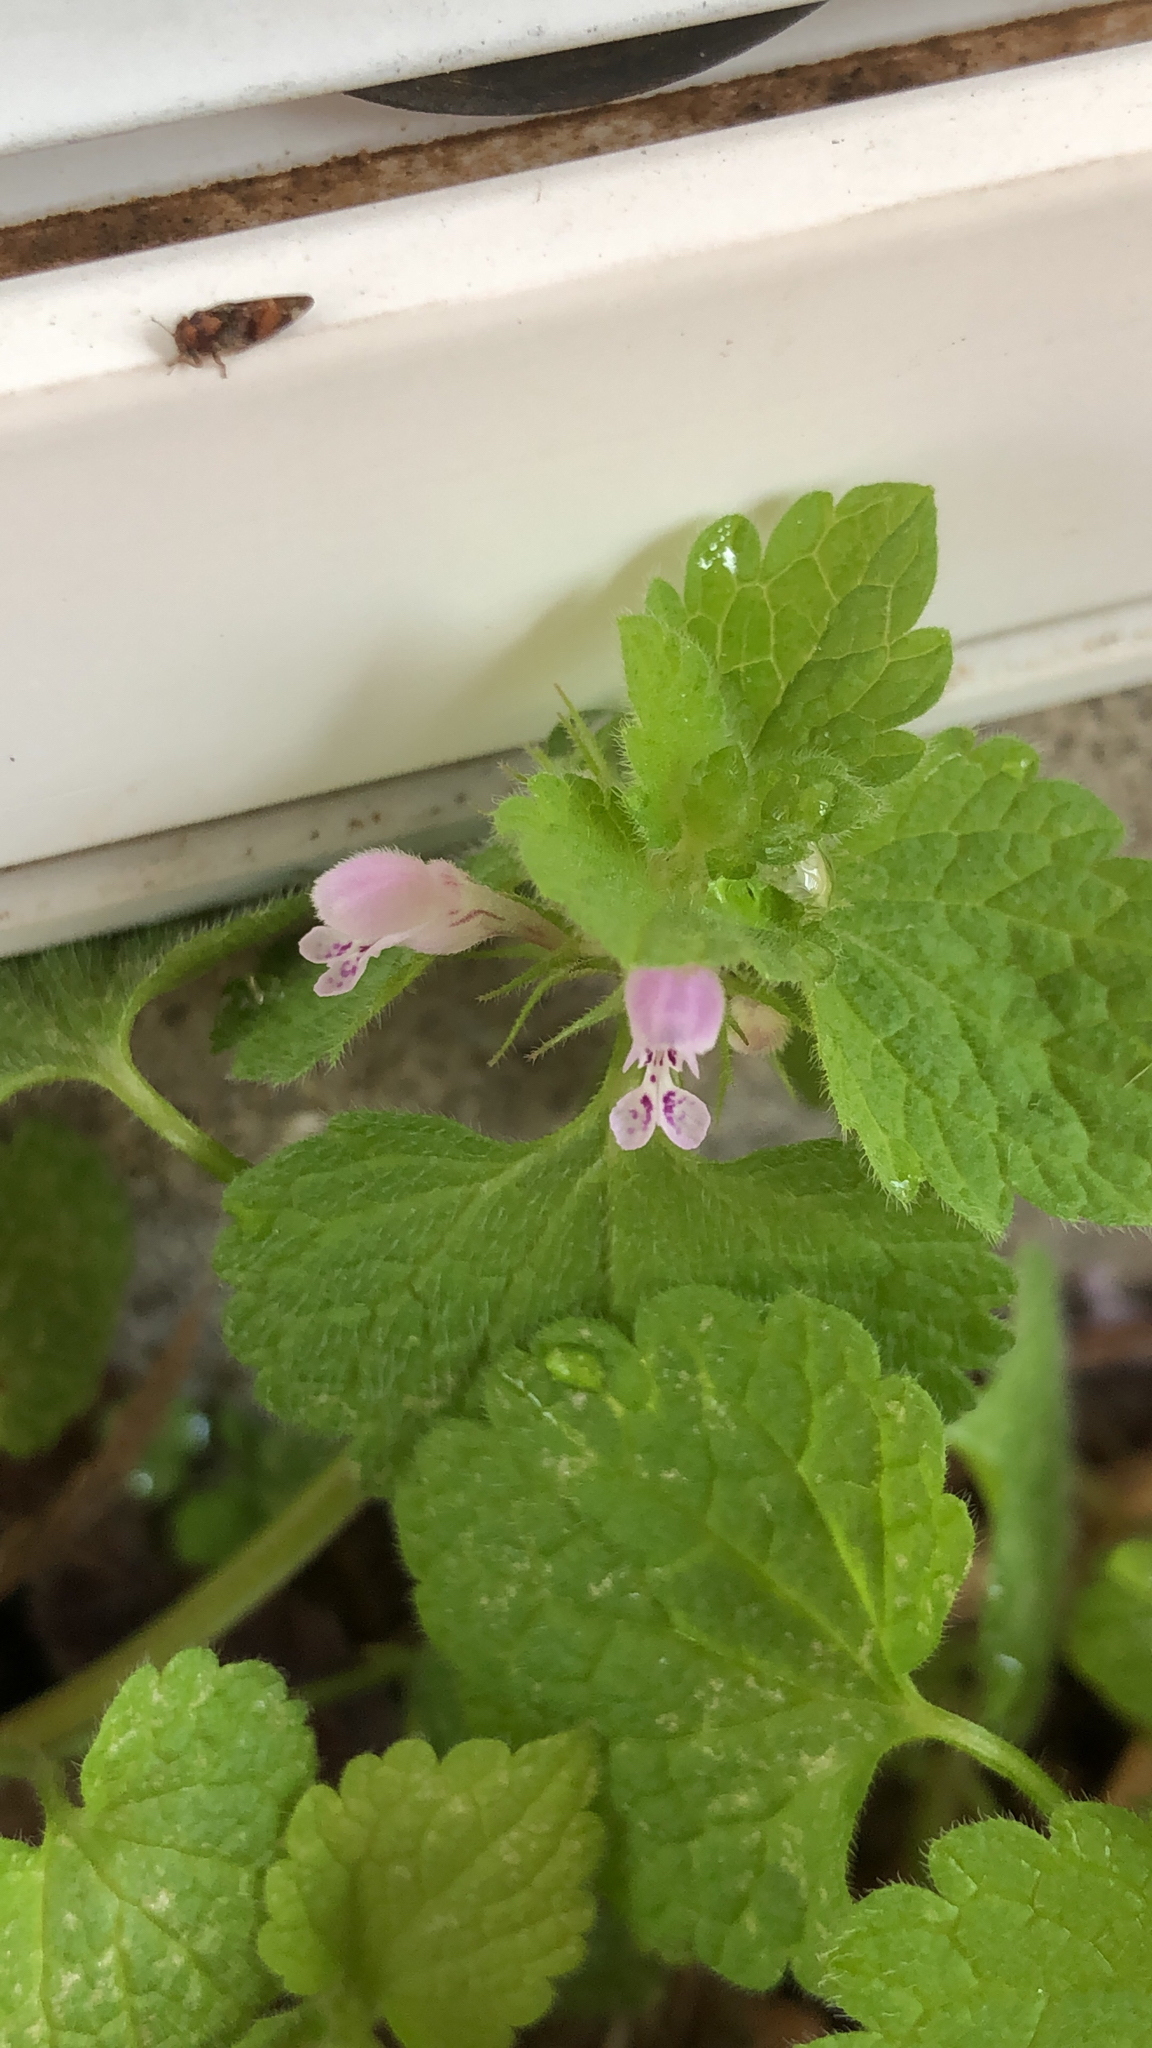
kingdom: Plantae
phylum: Tracheophyta
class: Magnoliopsida
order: Lamiales
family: Lamiaceae
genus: Lamium
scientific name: Lamium purpureum
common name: Red dead-nettle
